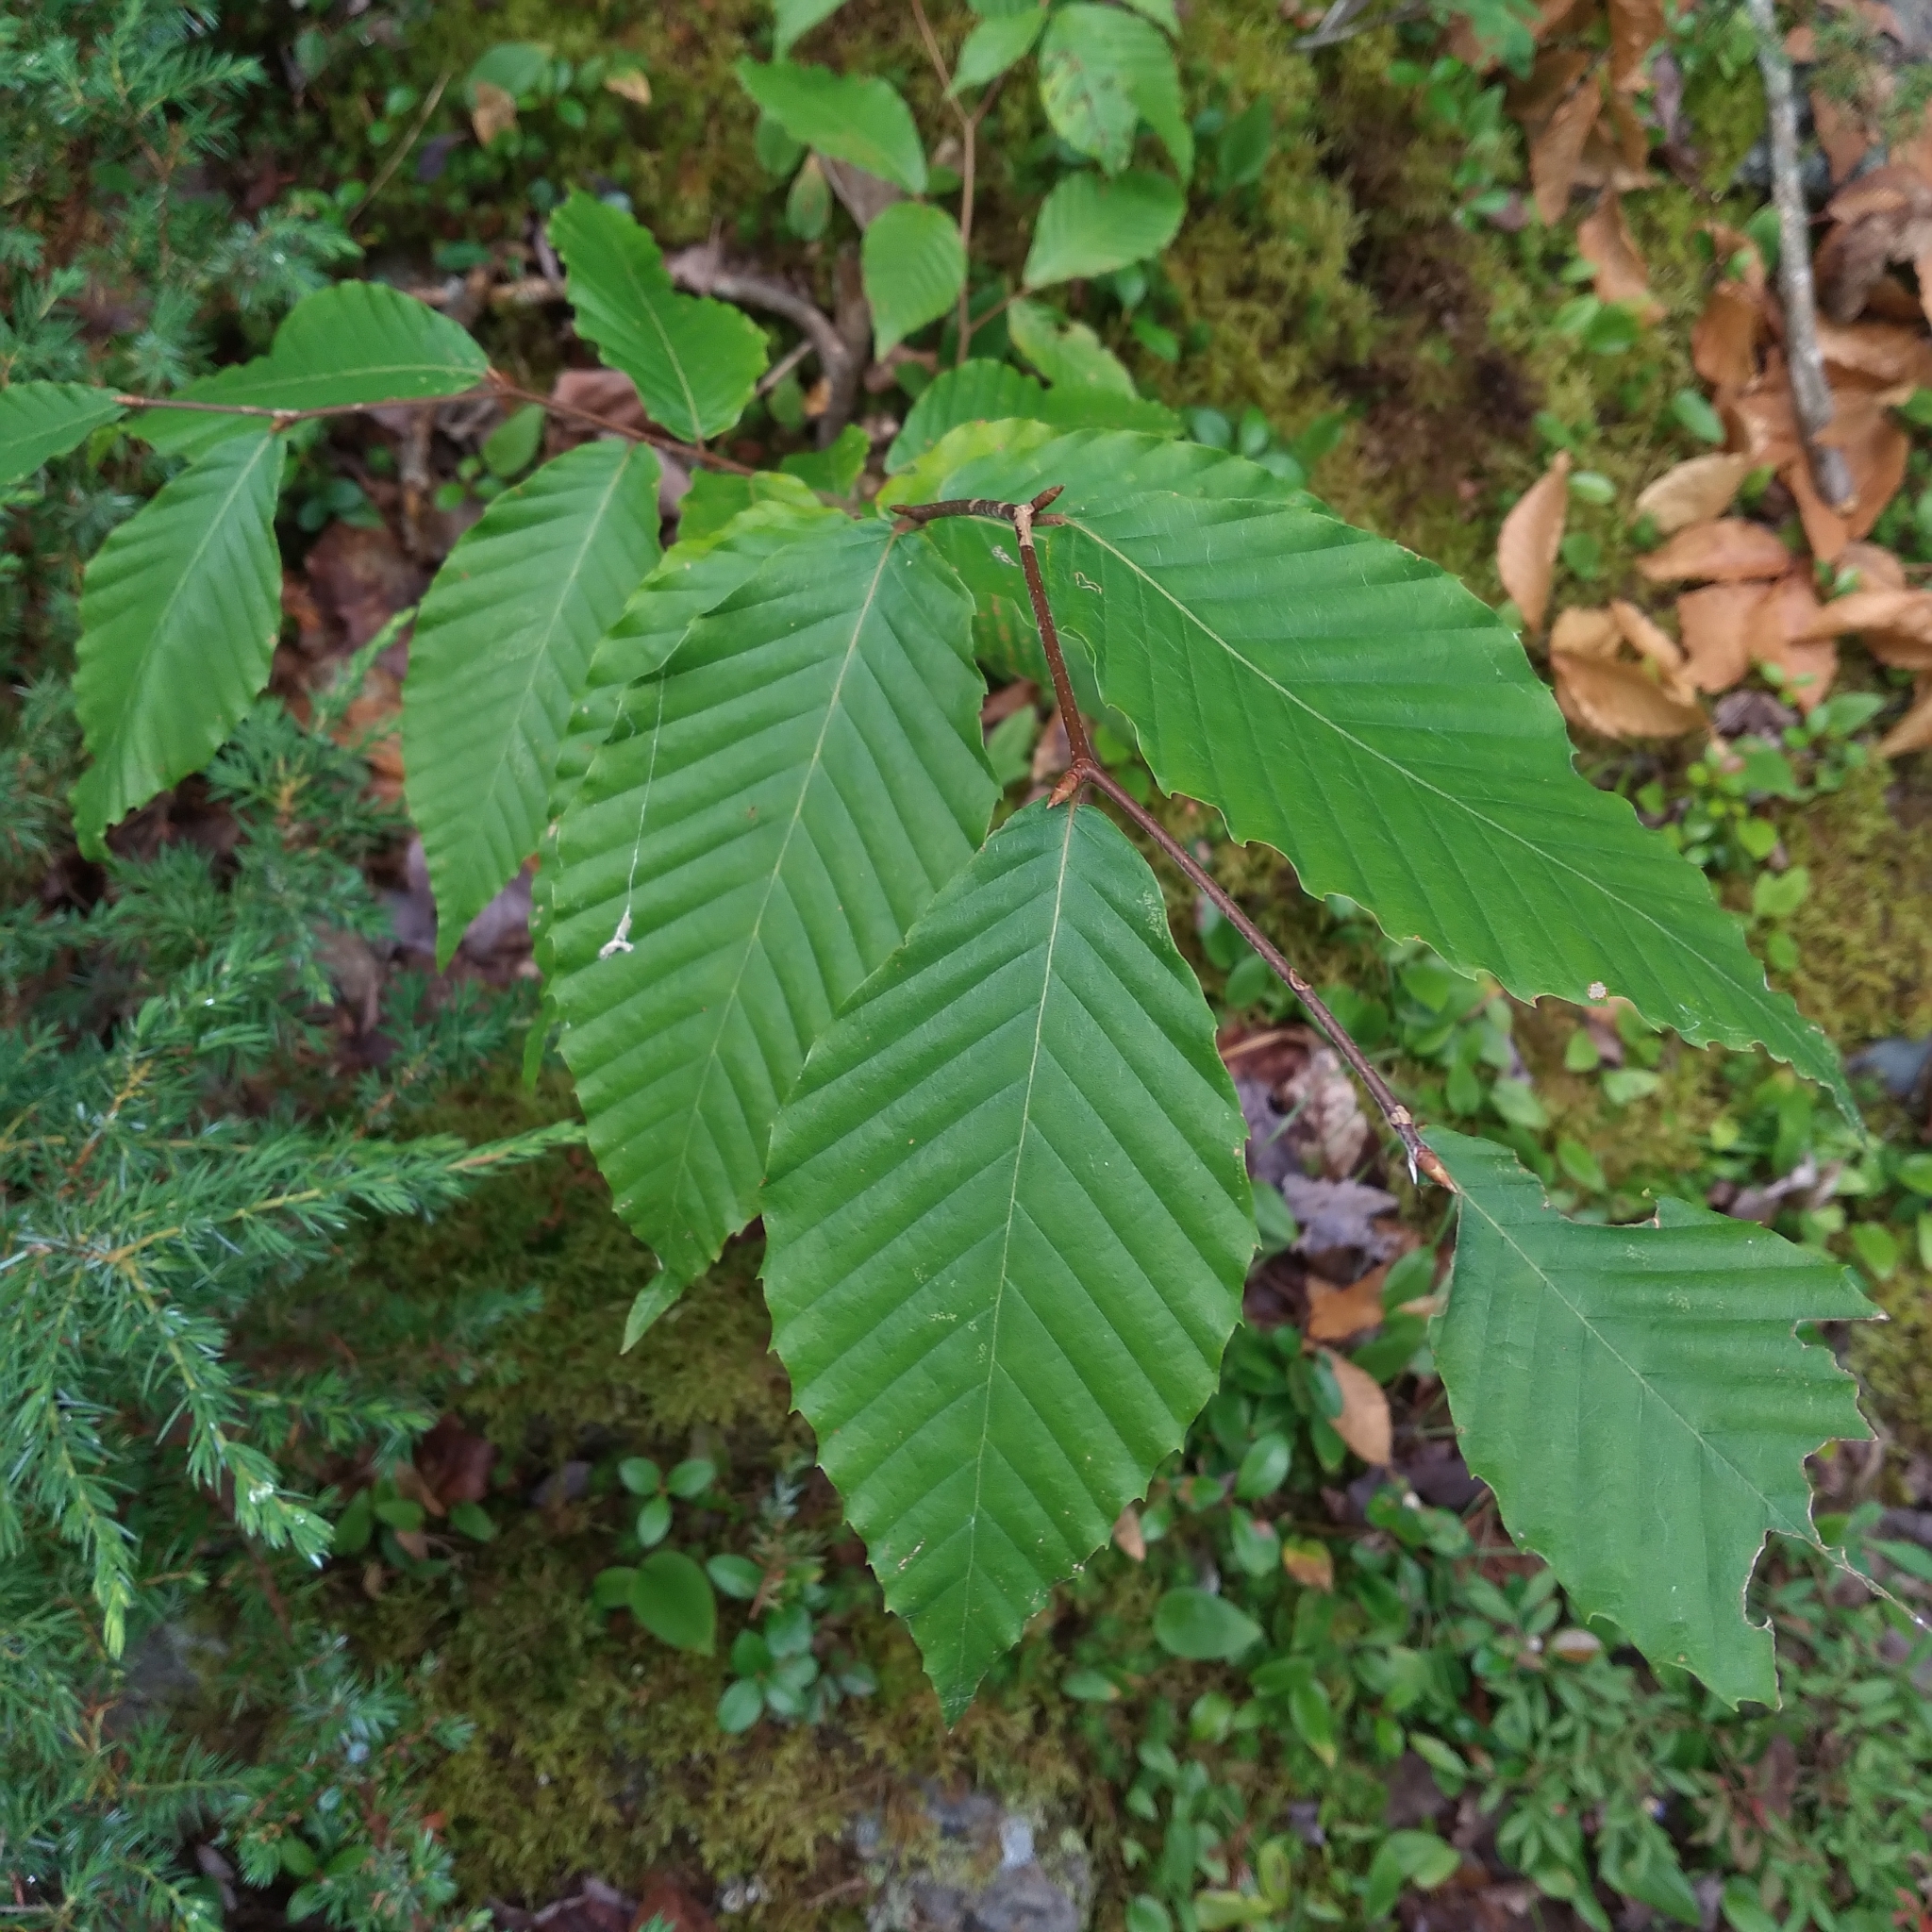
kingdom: Plantae
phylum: Tracheophyta
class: Magnoliopsida
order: Fagales
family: Fagaceae
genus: Fagus
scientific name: Fagus grandifolia
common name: American beech
